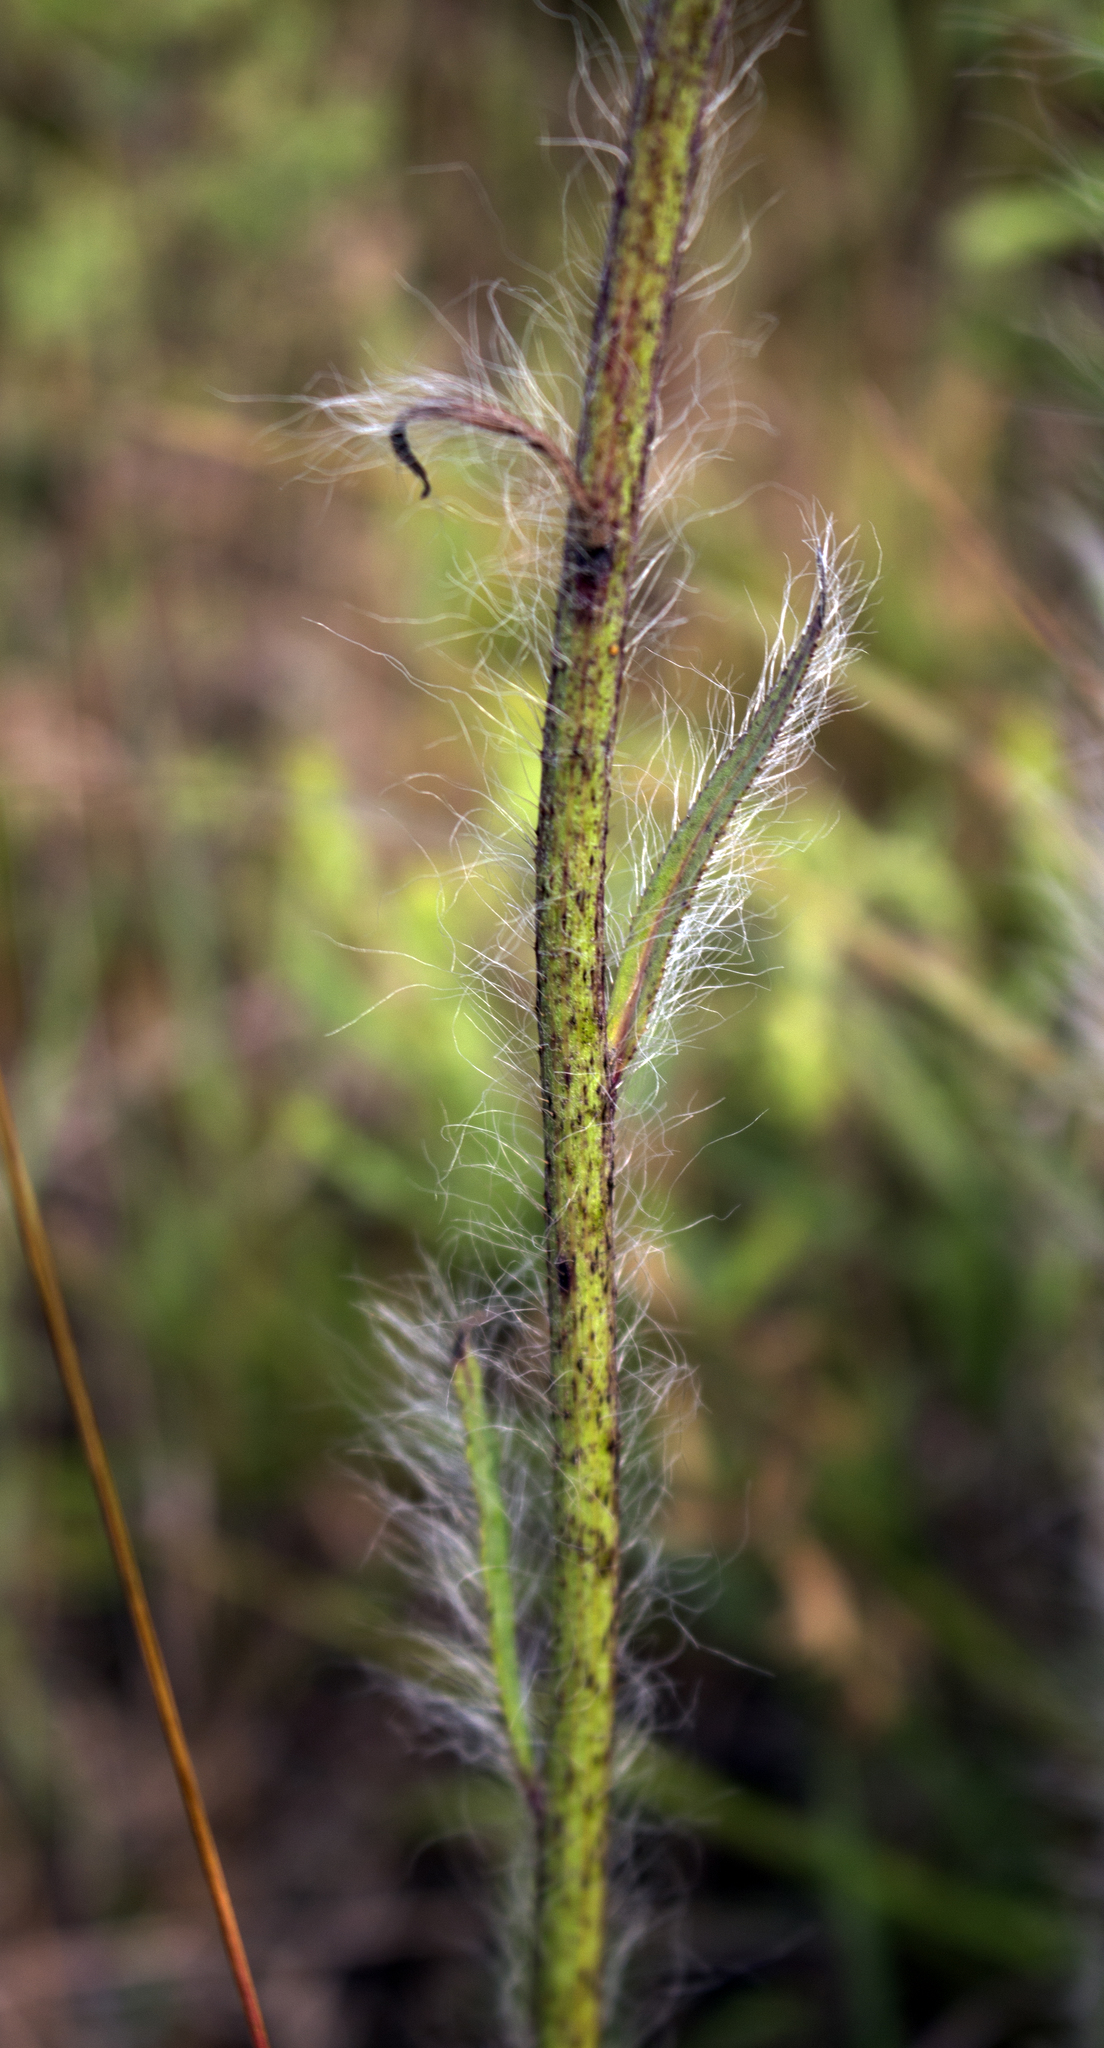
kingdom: Plantae
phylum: Tracheophyta
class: Magnoliopsida
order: Asterales
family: Asteraceae
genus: Hieracium
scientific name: Hieracium longipilum
